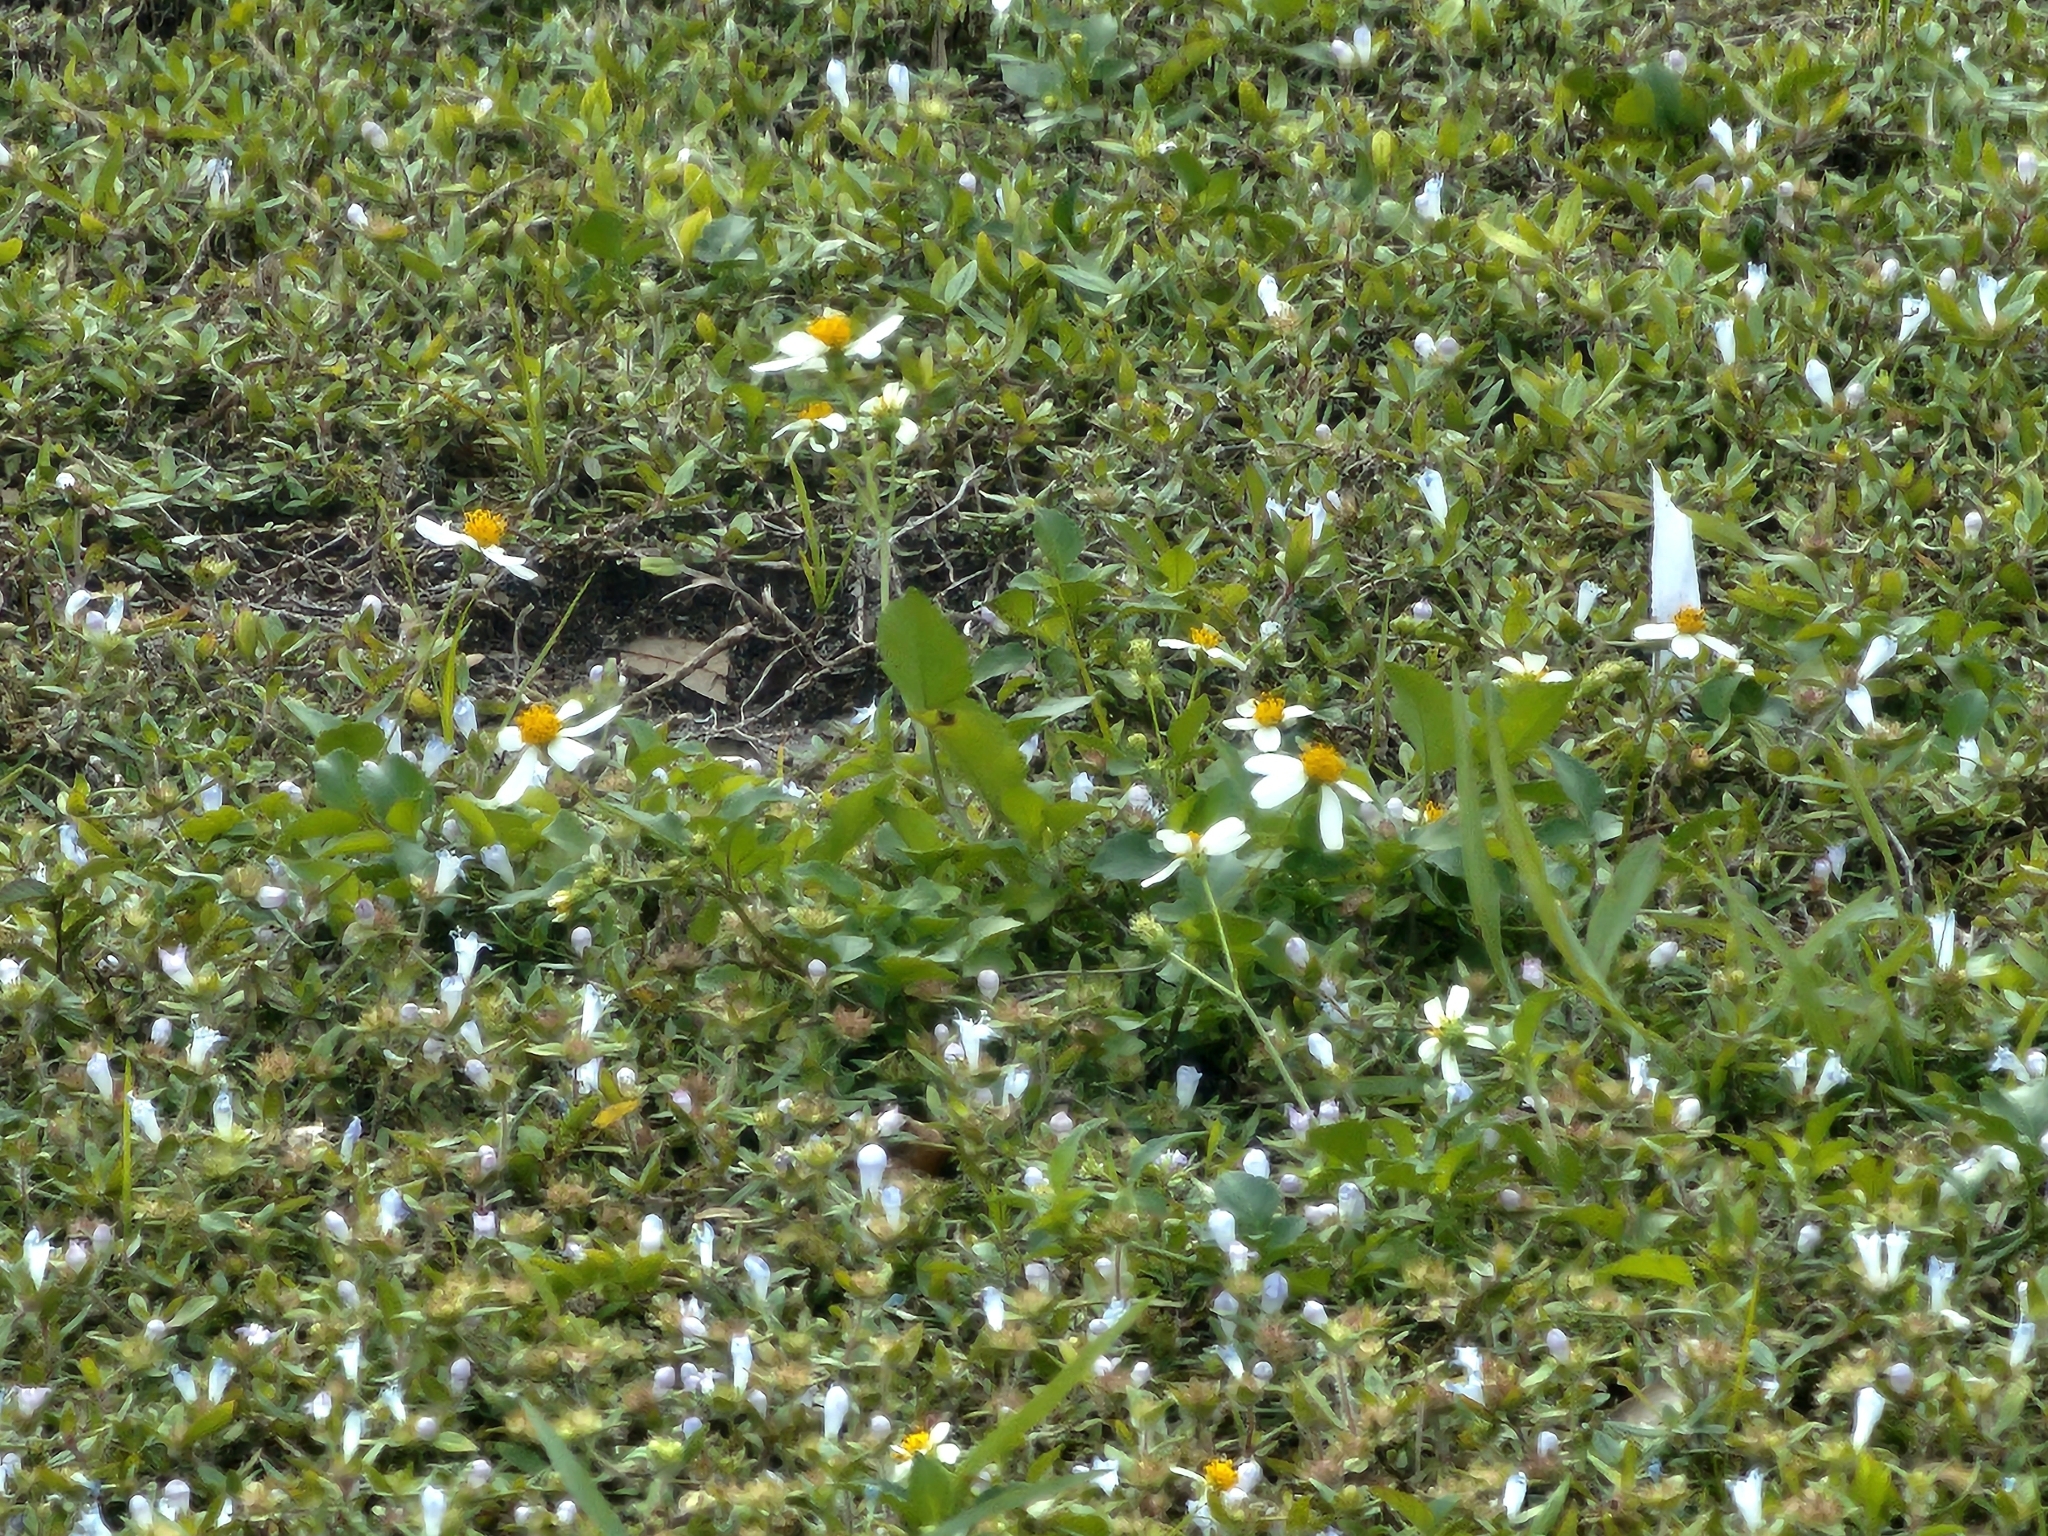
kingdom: Plantae
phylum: Tracheophyta
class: Magnoliopsida
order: Asterales
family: Asteraceae
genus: Bidens
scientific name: Bidens alba
